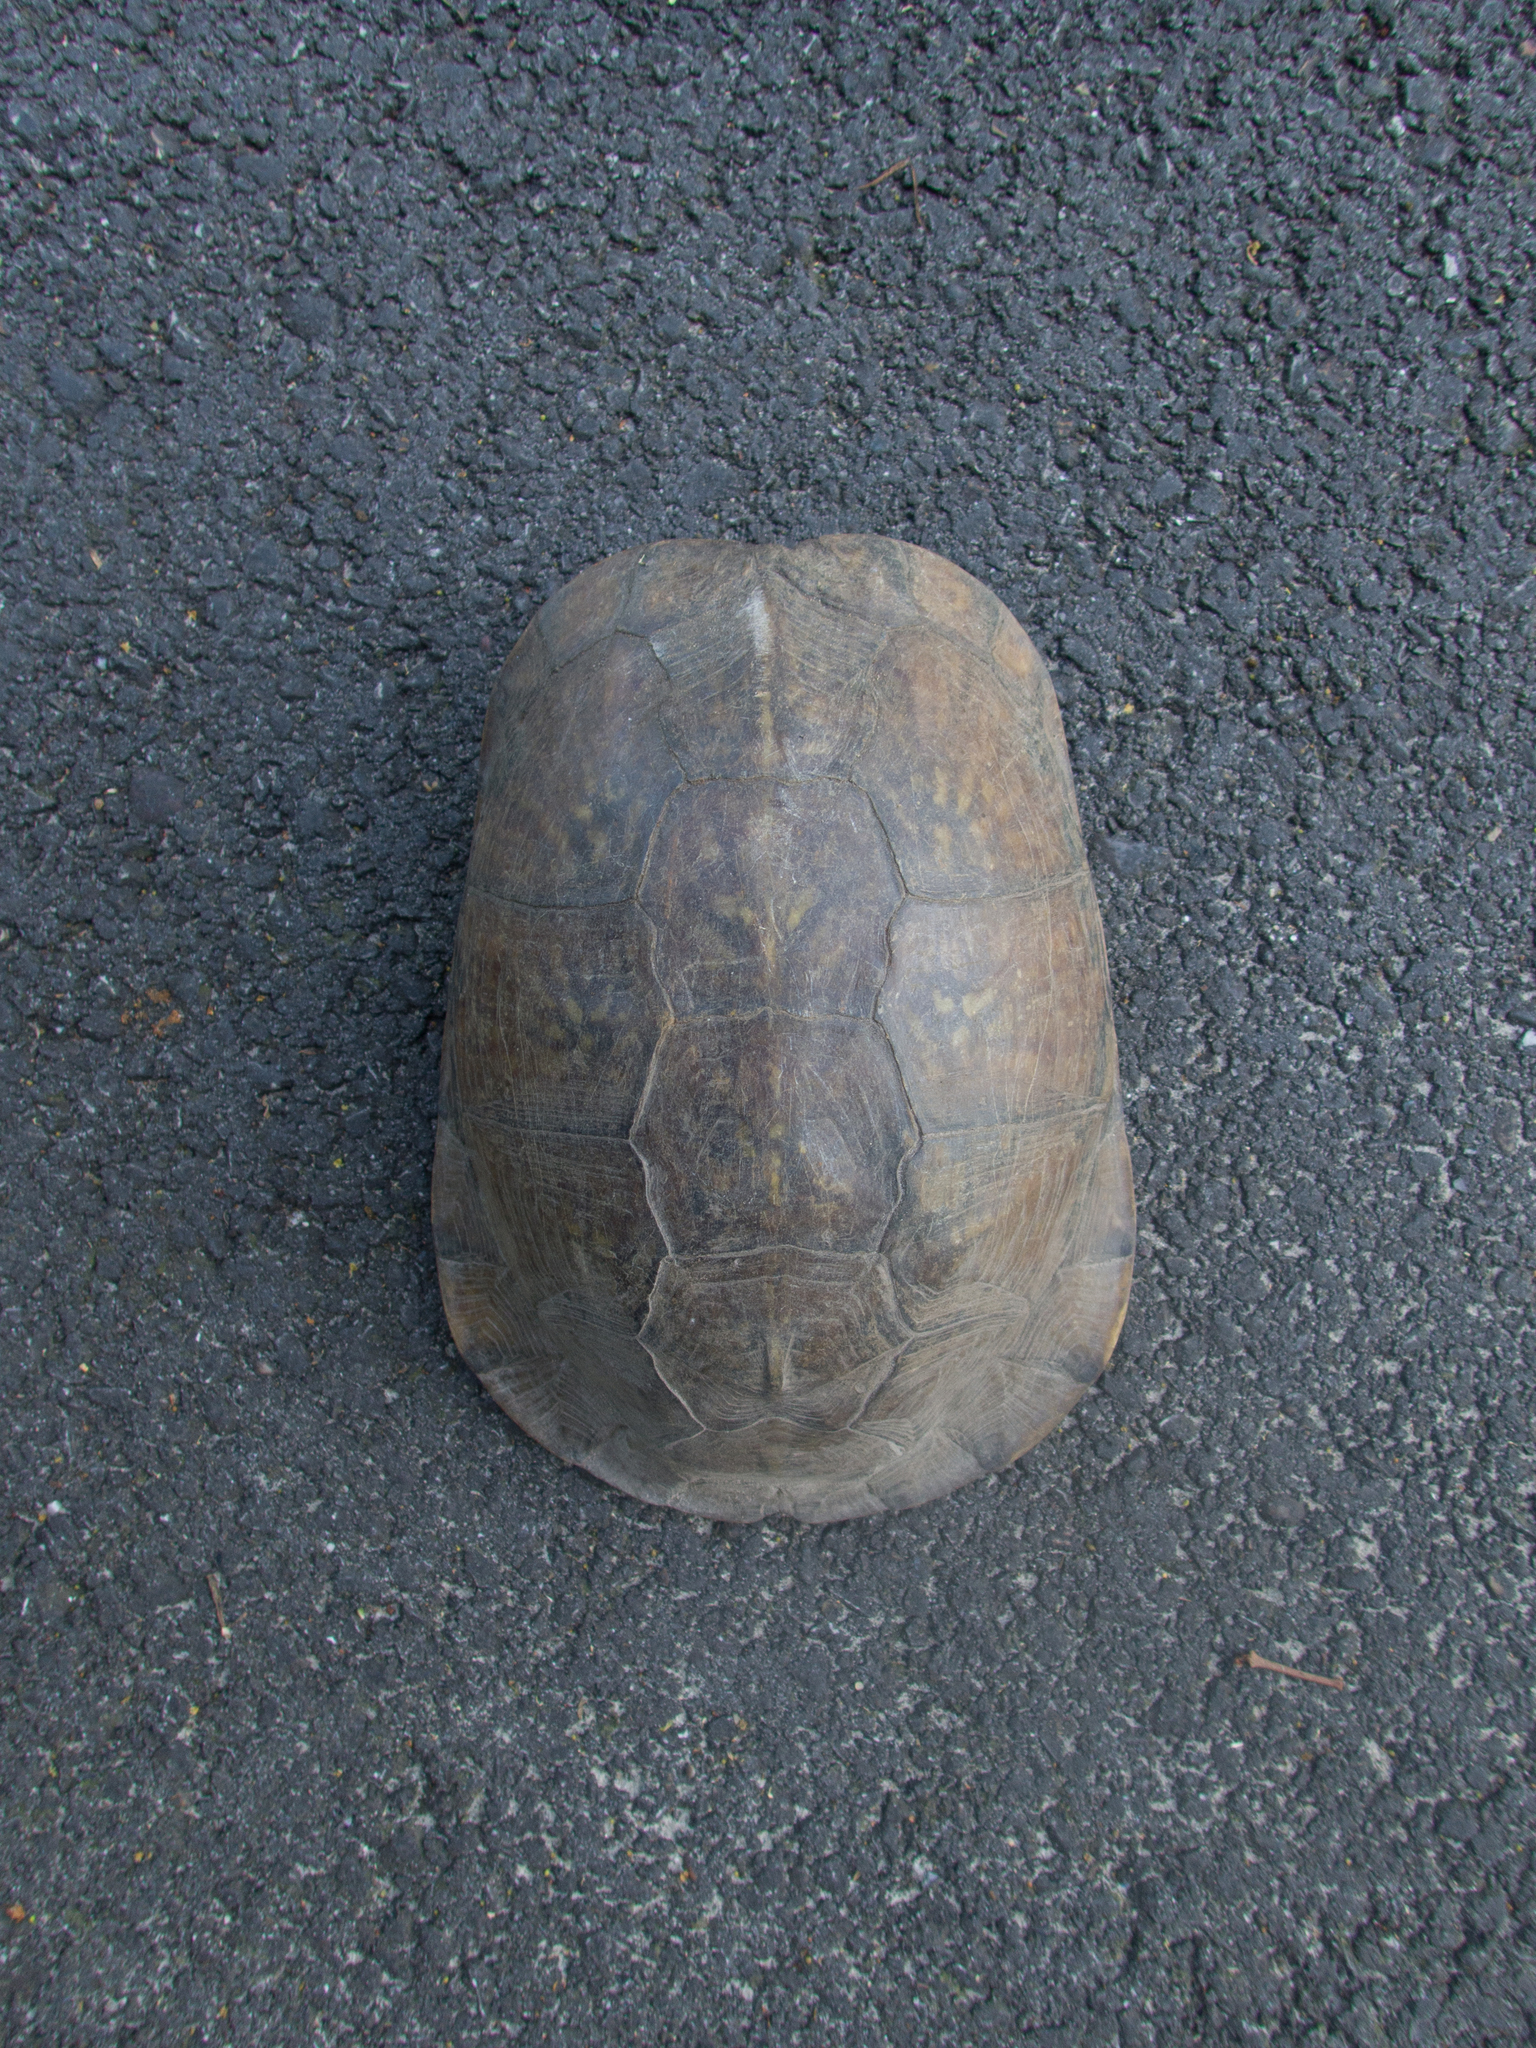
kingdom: Animalia
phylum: Chordata
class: Testudines
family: Emydidae
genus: Terrapene
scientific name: Terrapene carolina
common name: Common box turtle
